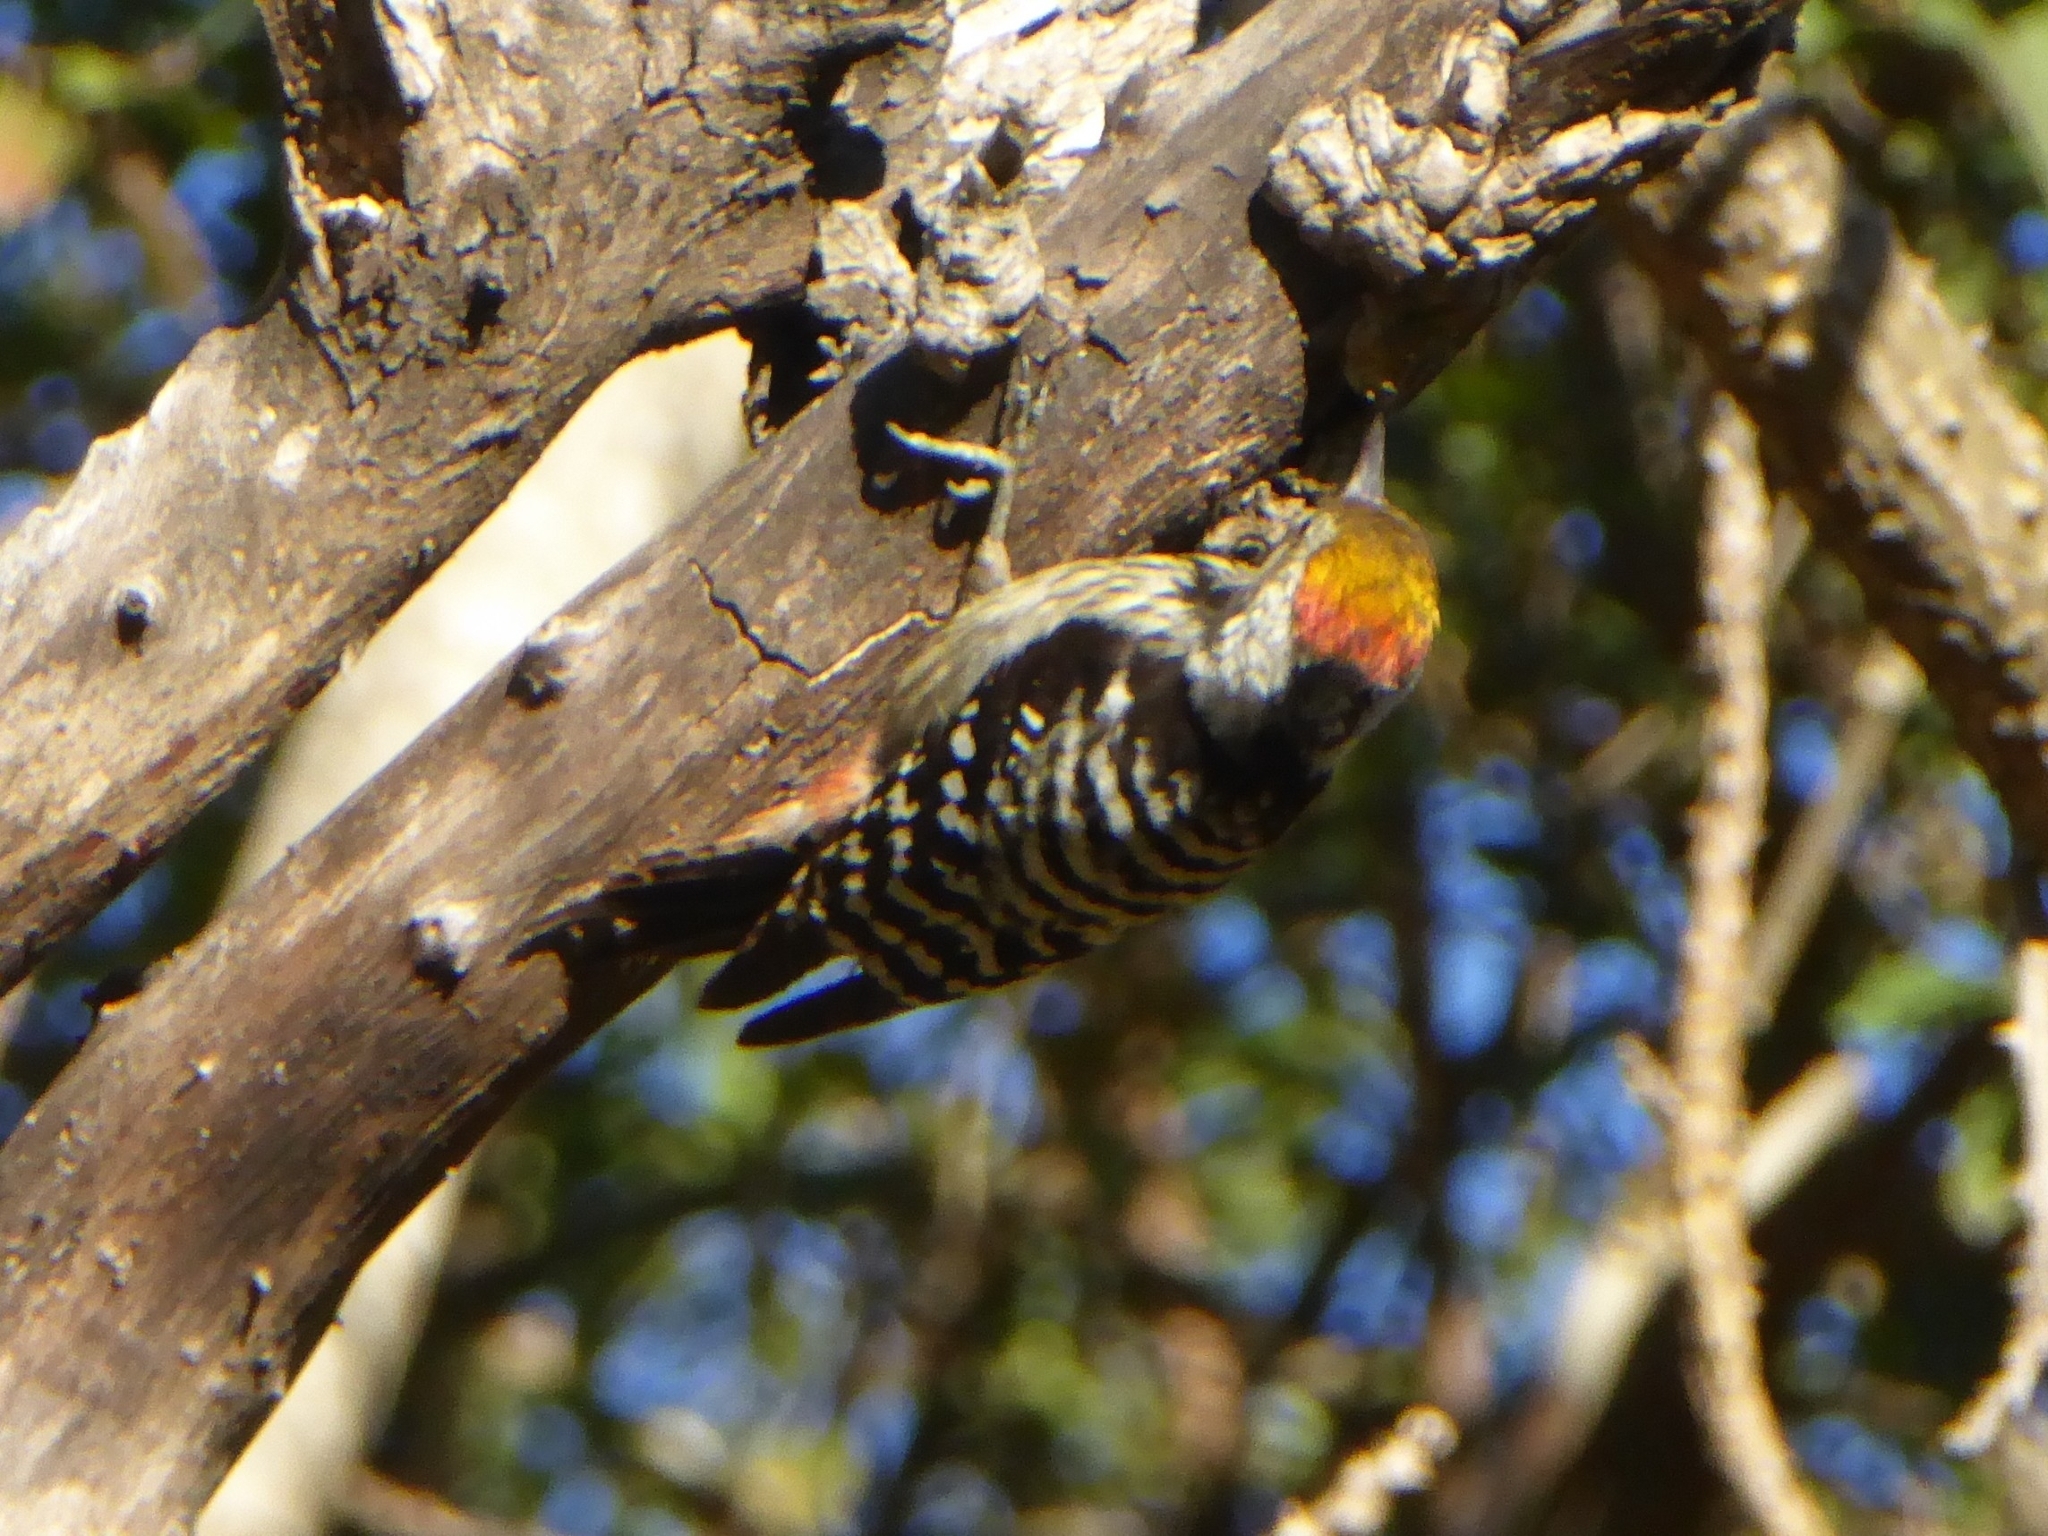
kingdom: Animalia
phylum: Chordata
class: Aves
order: Piciformes
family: Picidae
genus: Dendrocoptes
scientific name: Dendrocoptes auriceps
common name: Brown-fronted woodpecker
